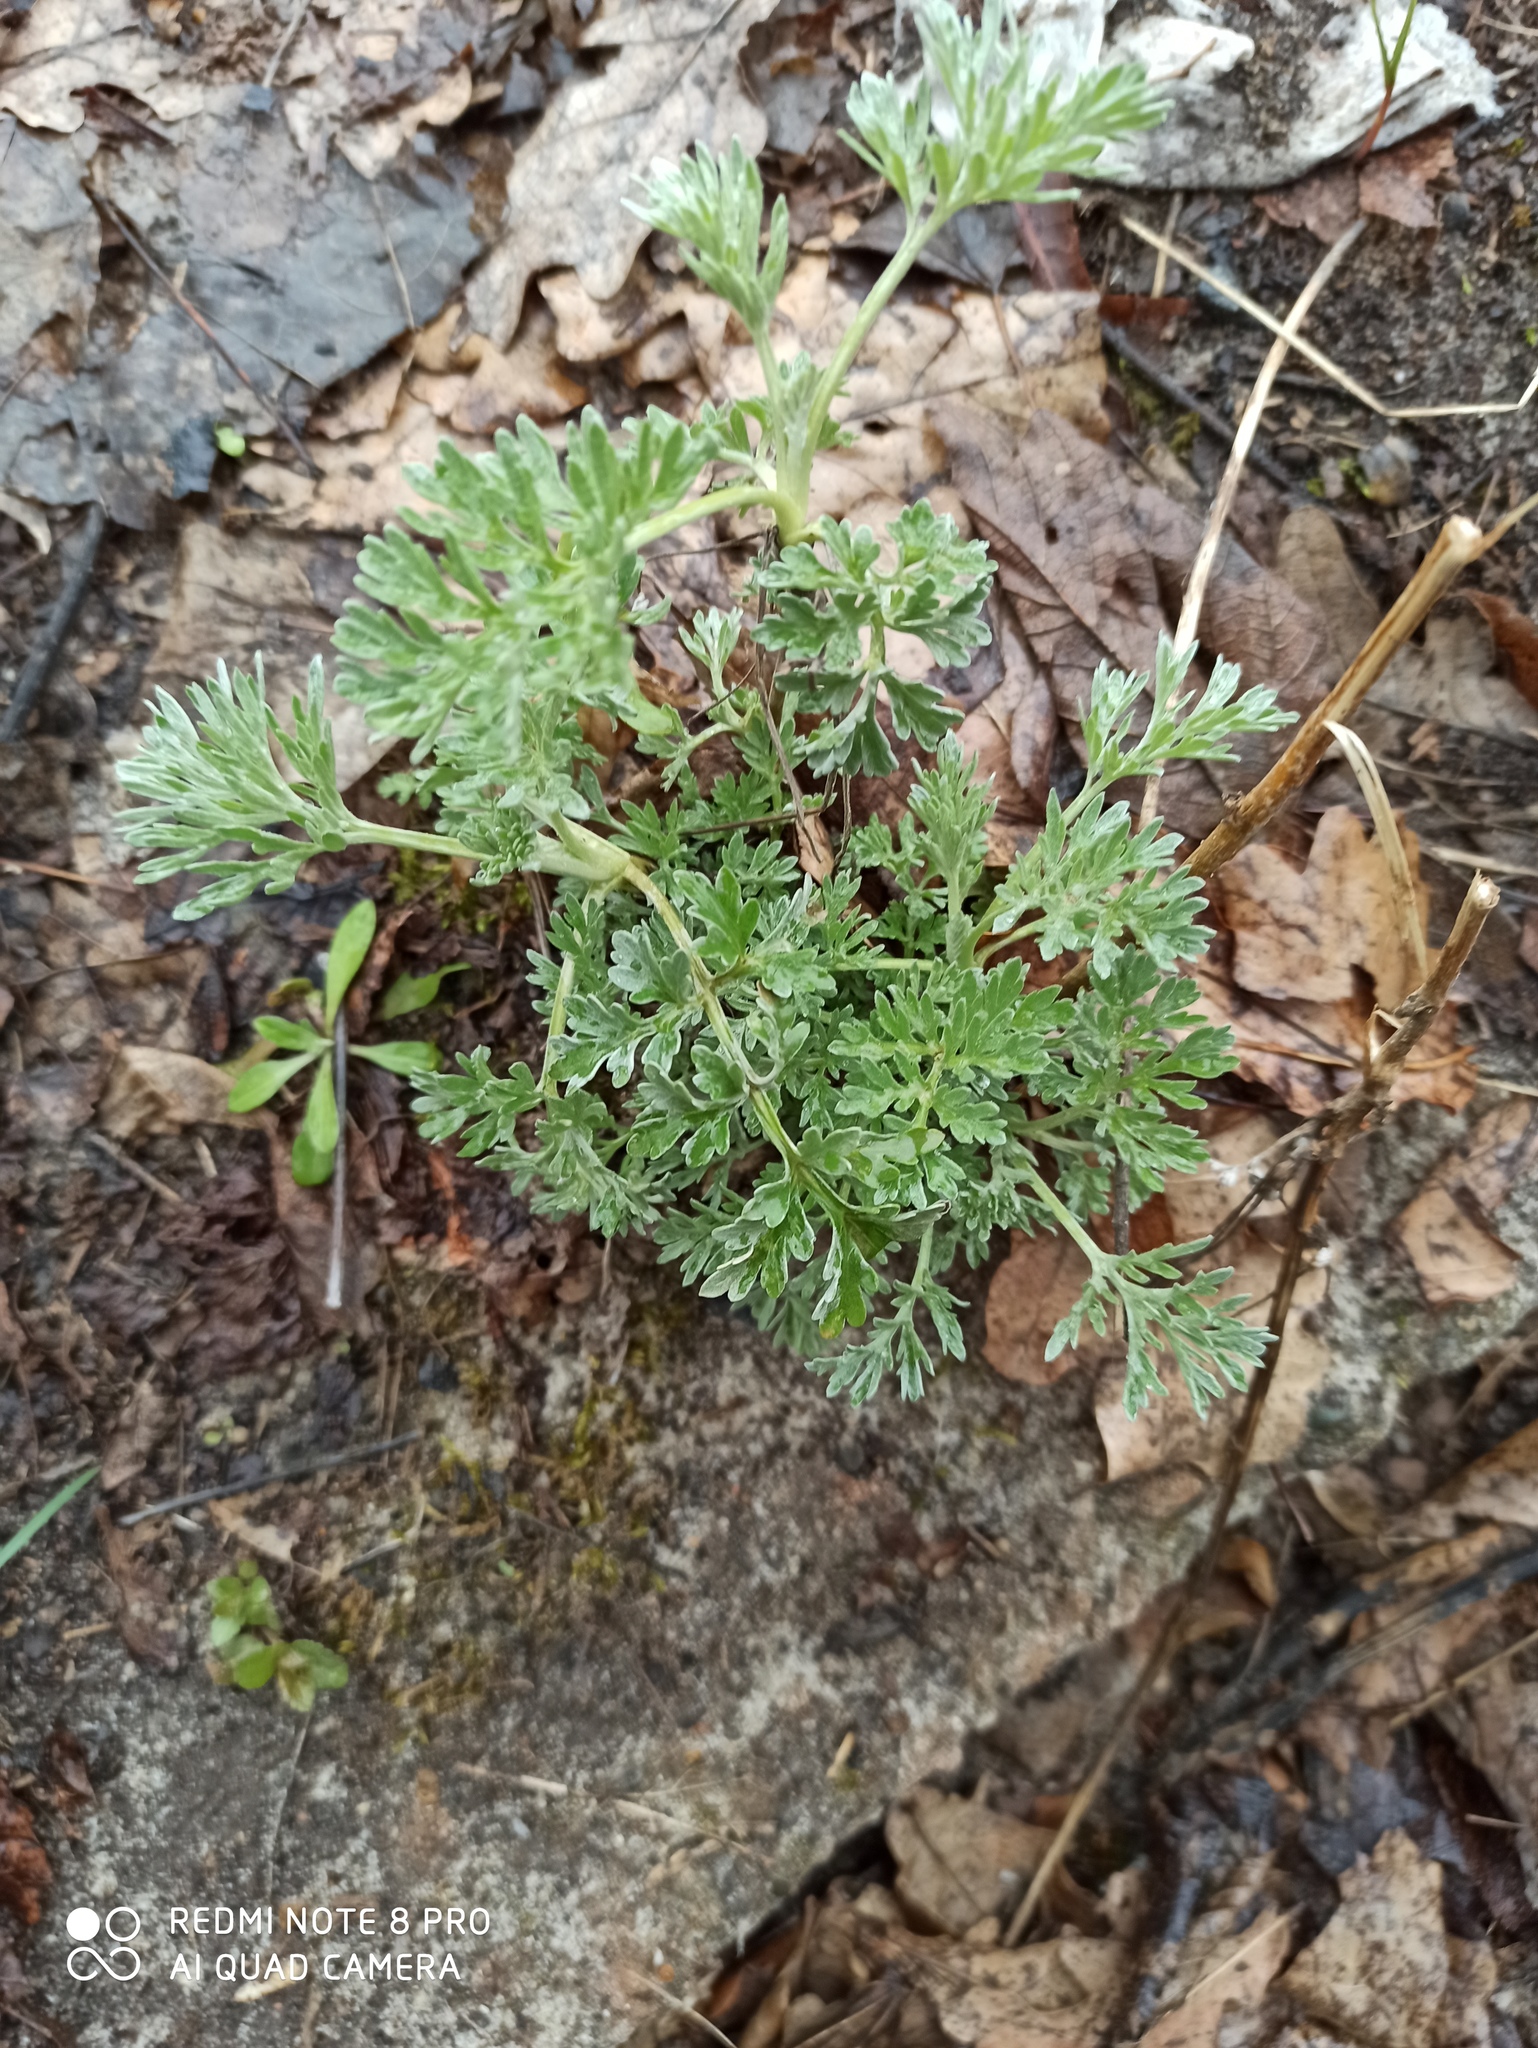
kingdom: Plantae
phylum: Tracheophyta
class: Magnoliopsida
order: Asterales
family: Asteraceae
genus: Artemisia
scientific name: Artemisia absinthium
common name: Wormwood
